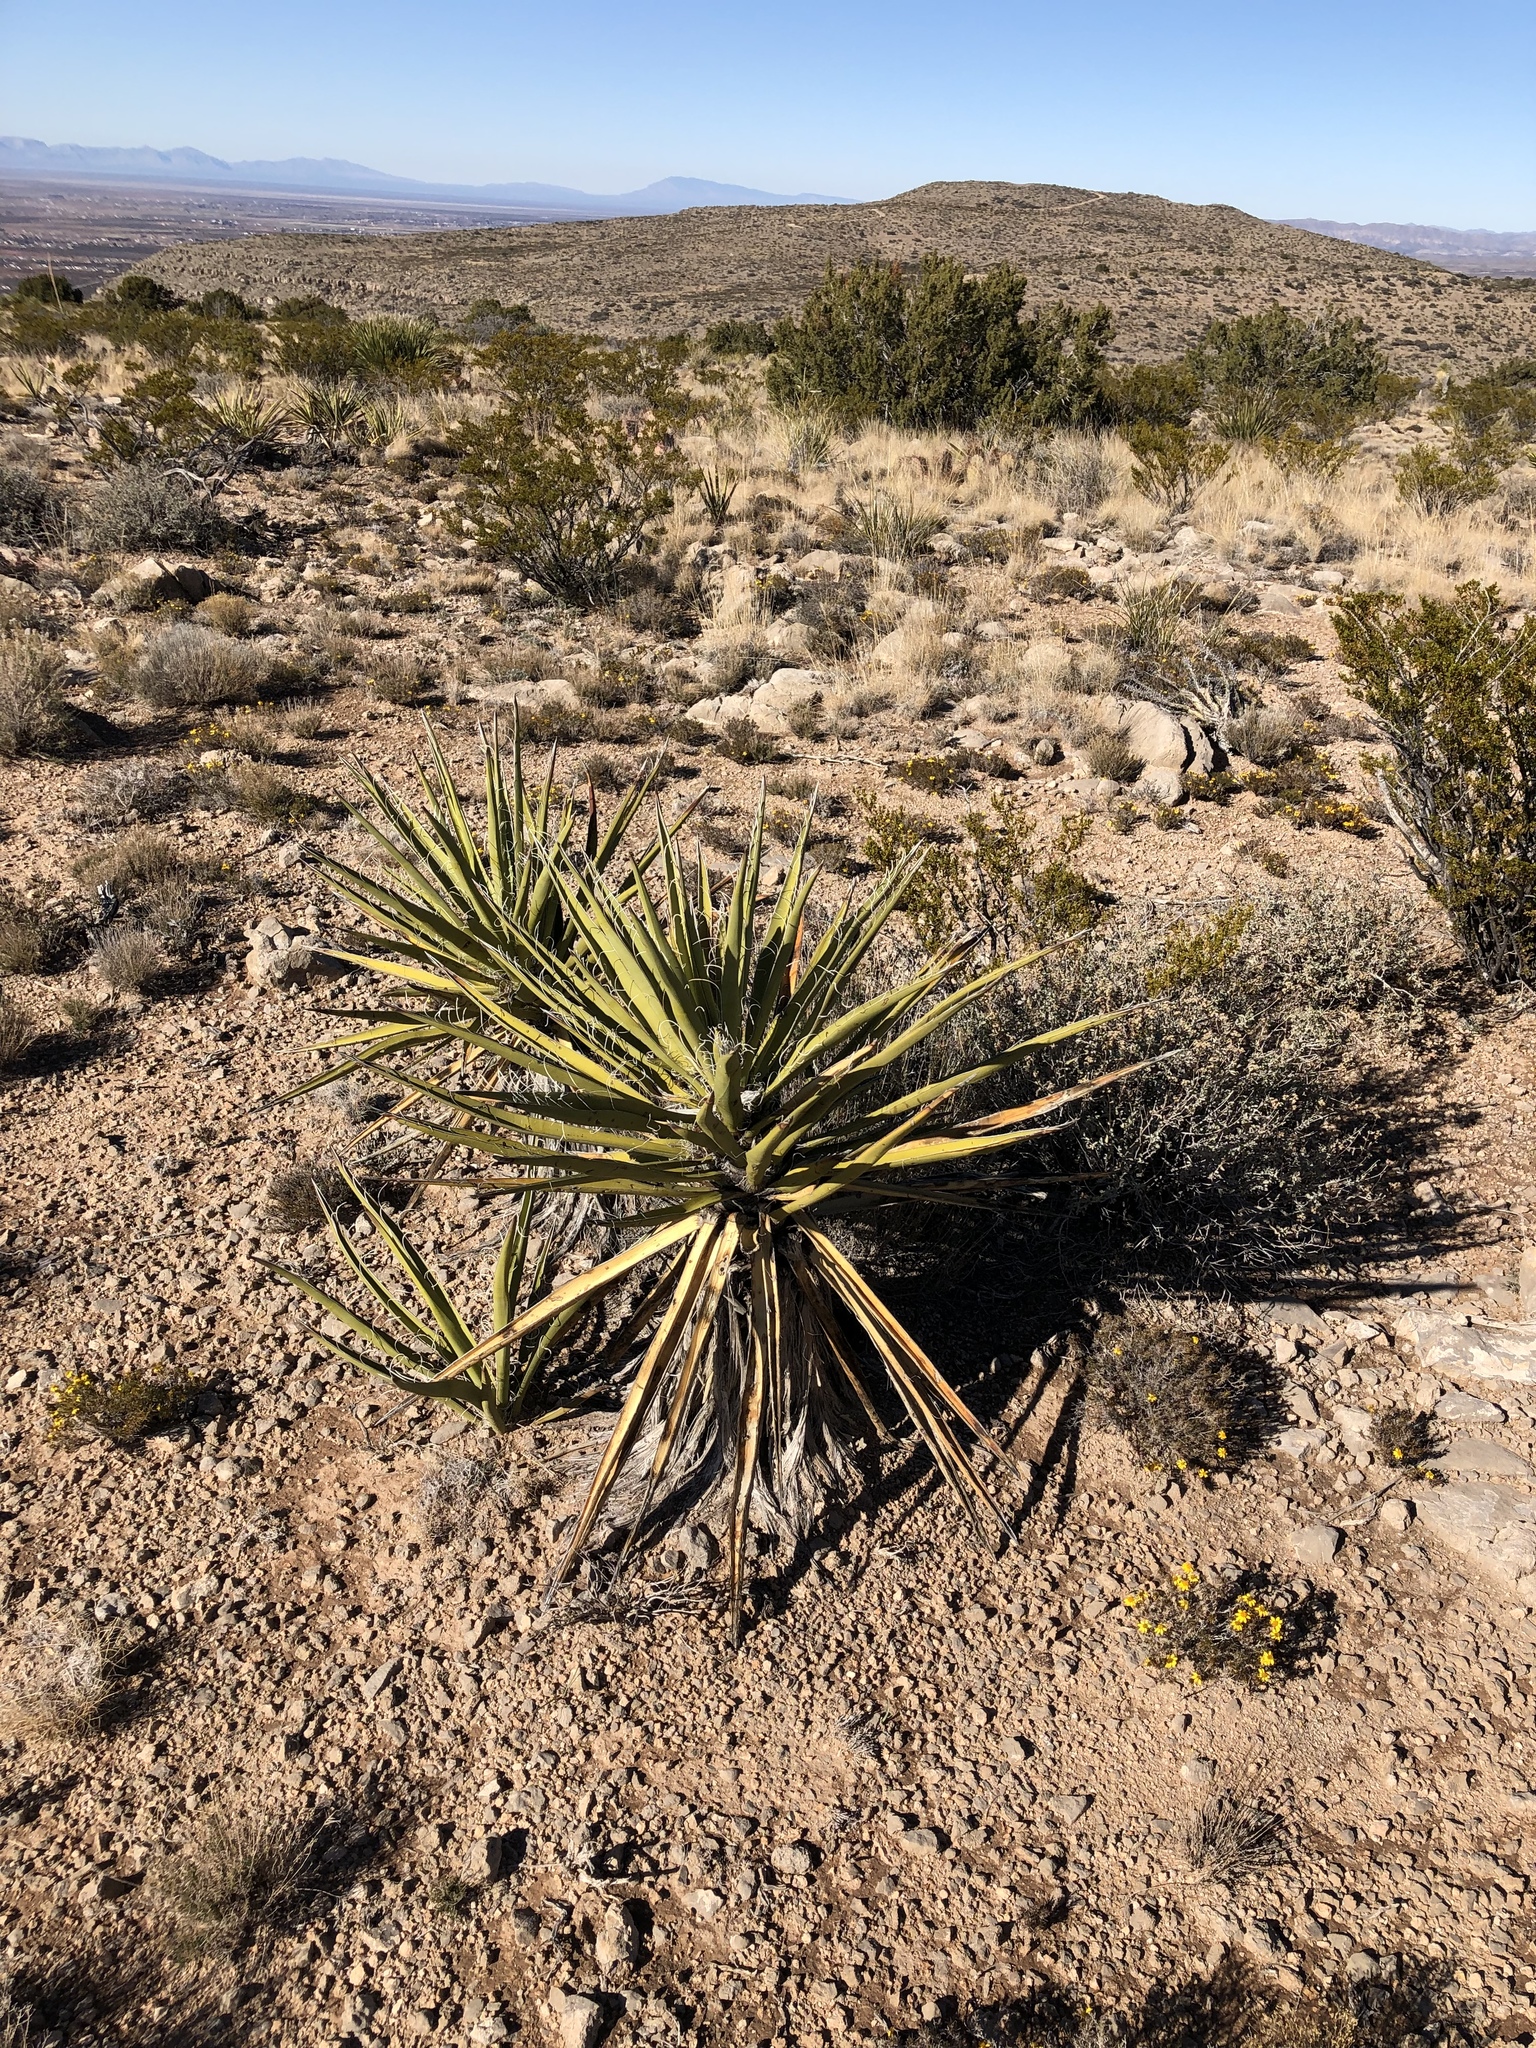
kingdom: Plantae
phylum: Tracheophyta
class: Liliopsida
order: Asparagales
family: Asparagaceae
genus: Yucca
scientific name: Yucca baccata
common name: Banana yucca
